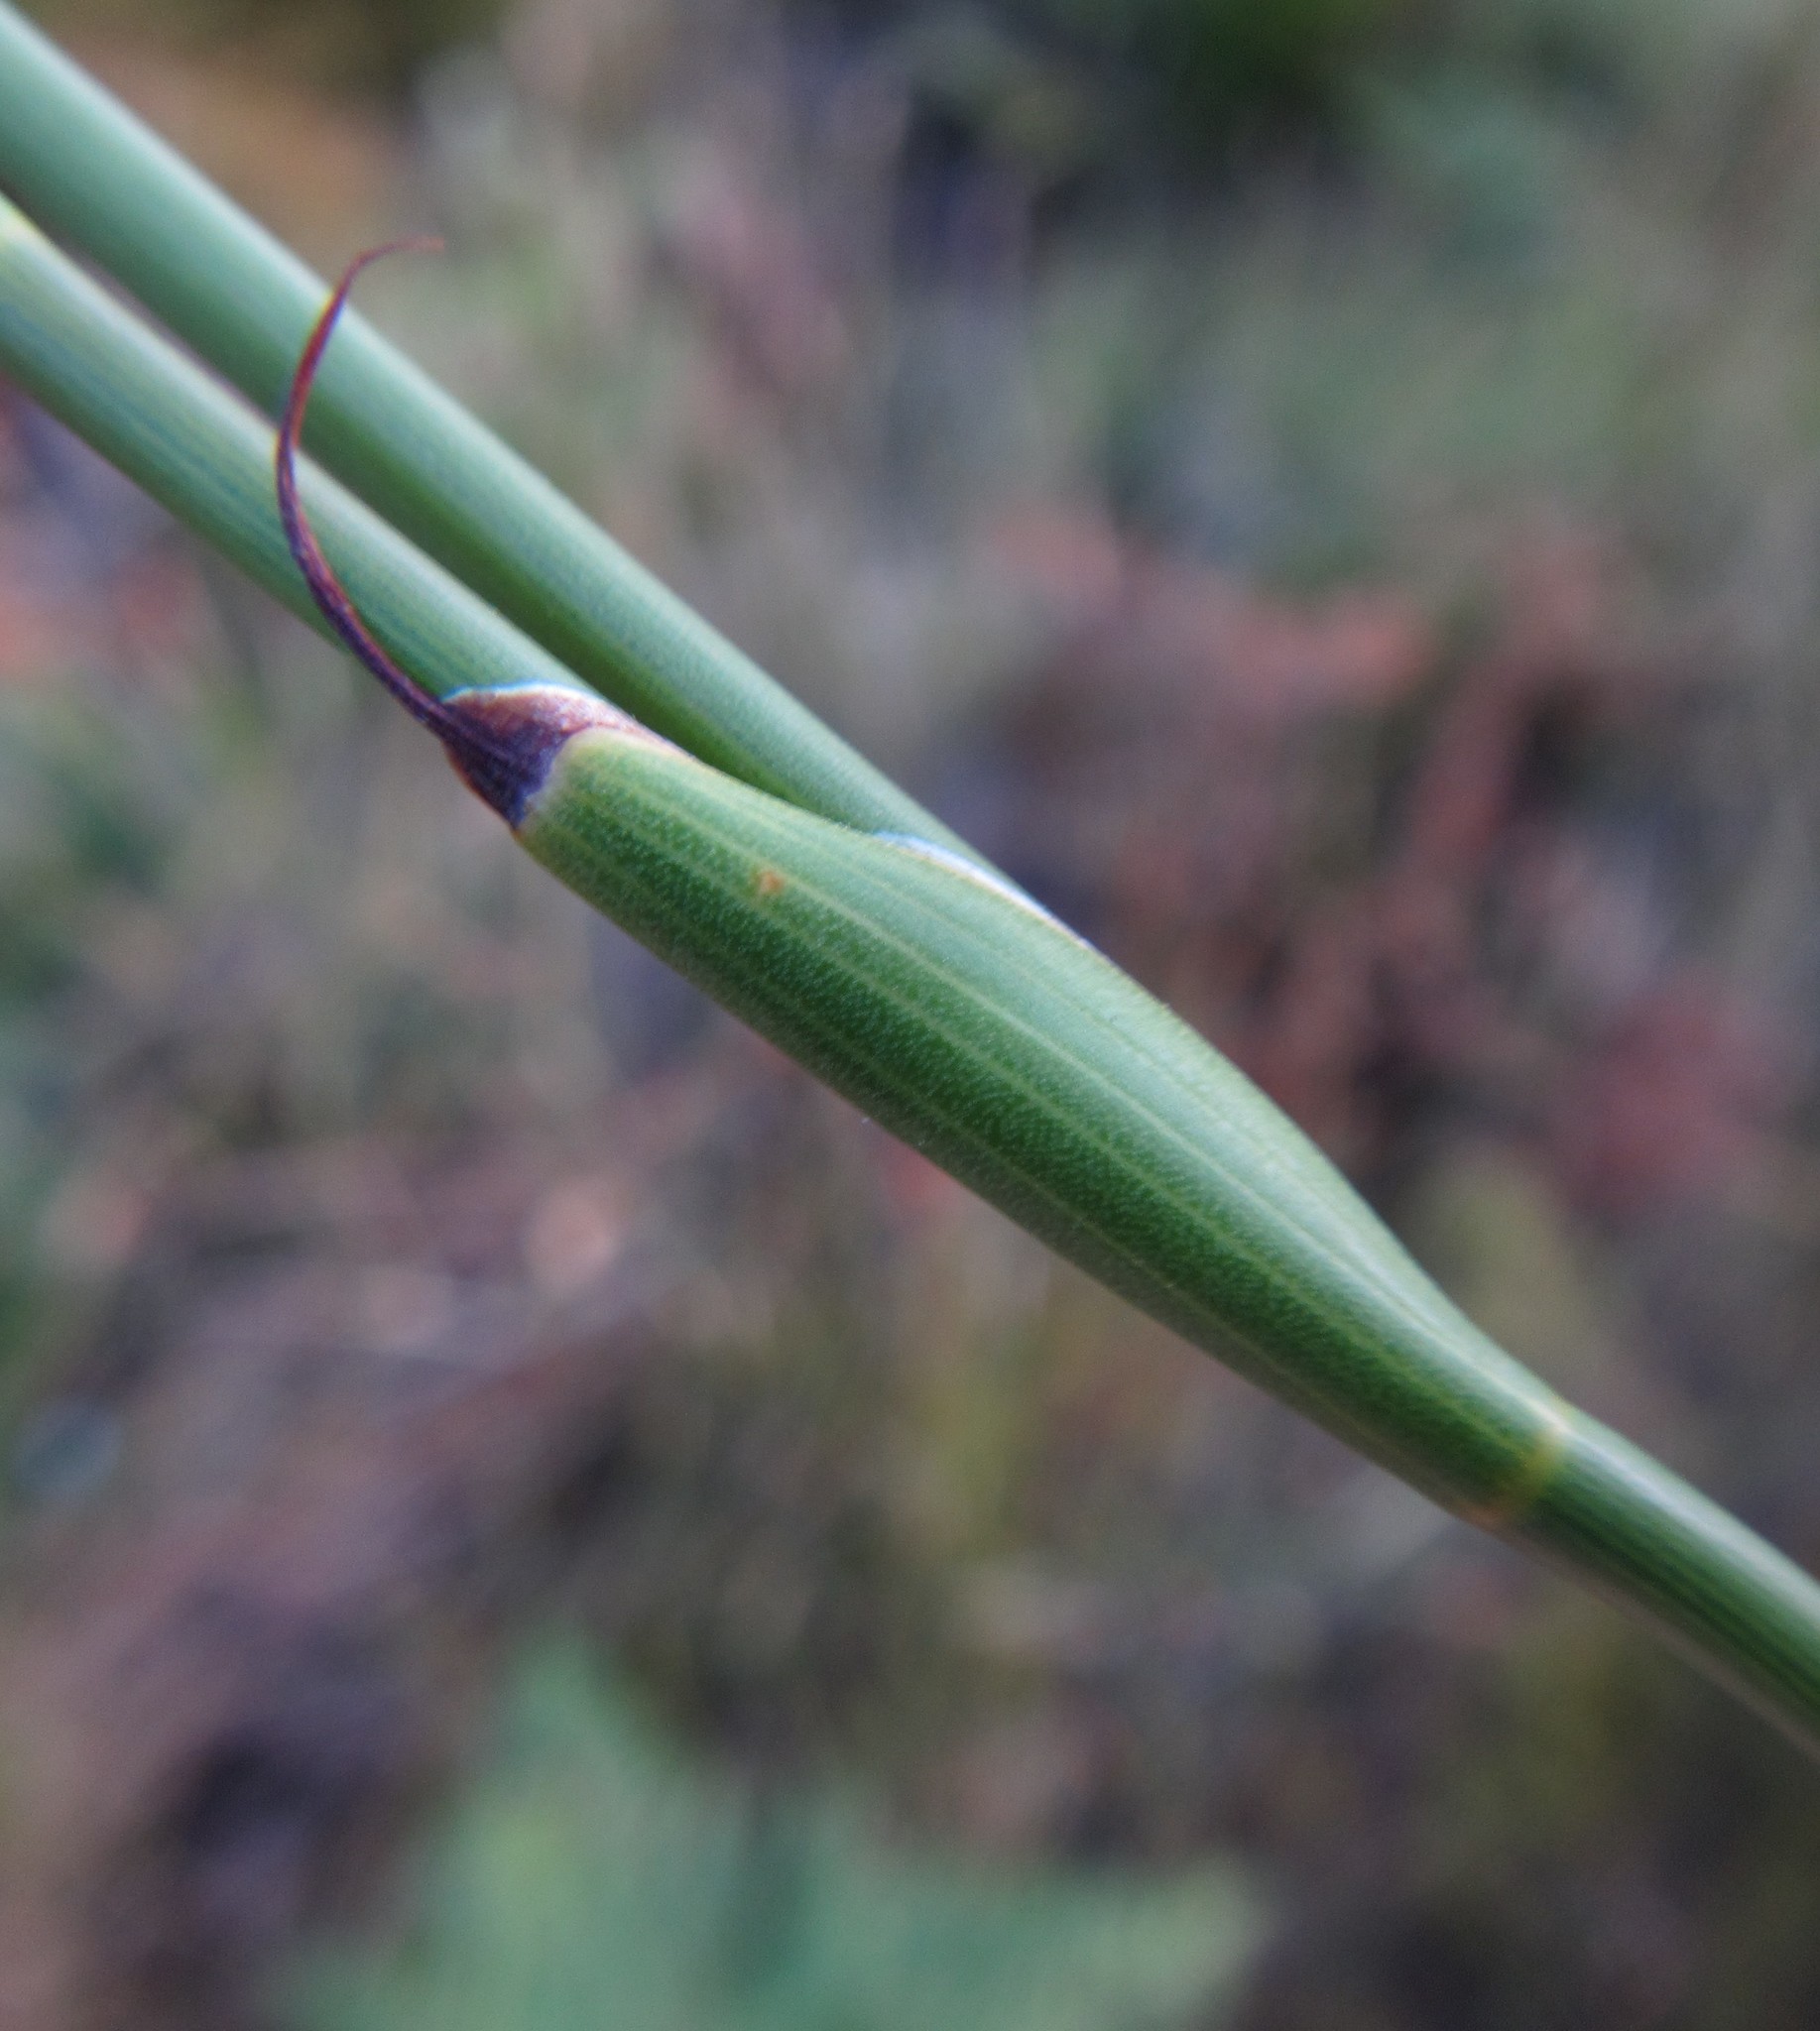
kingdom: Plantae
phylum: Tracheophyta
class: Liliopsida
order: Poales
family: Restionaceae
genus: Willdenowia
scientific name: Willdenowia sulcata
